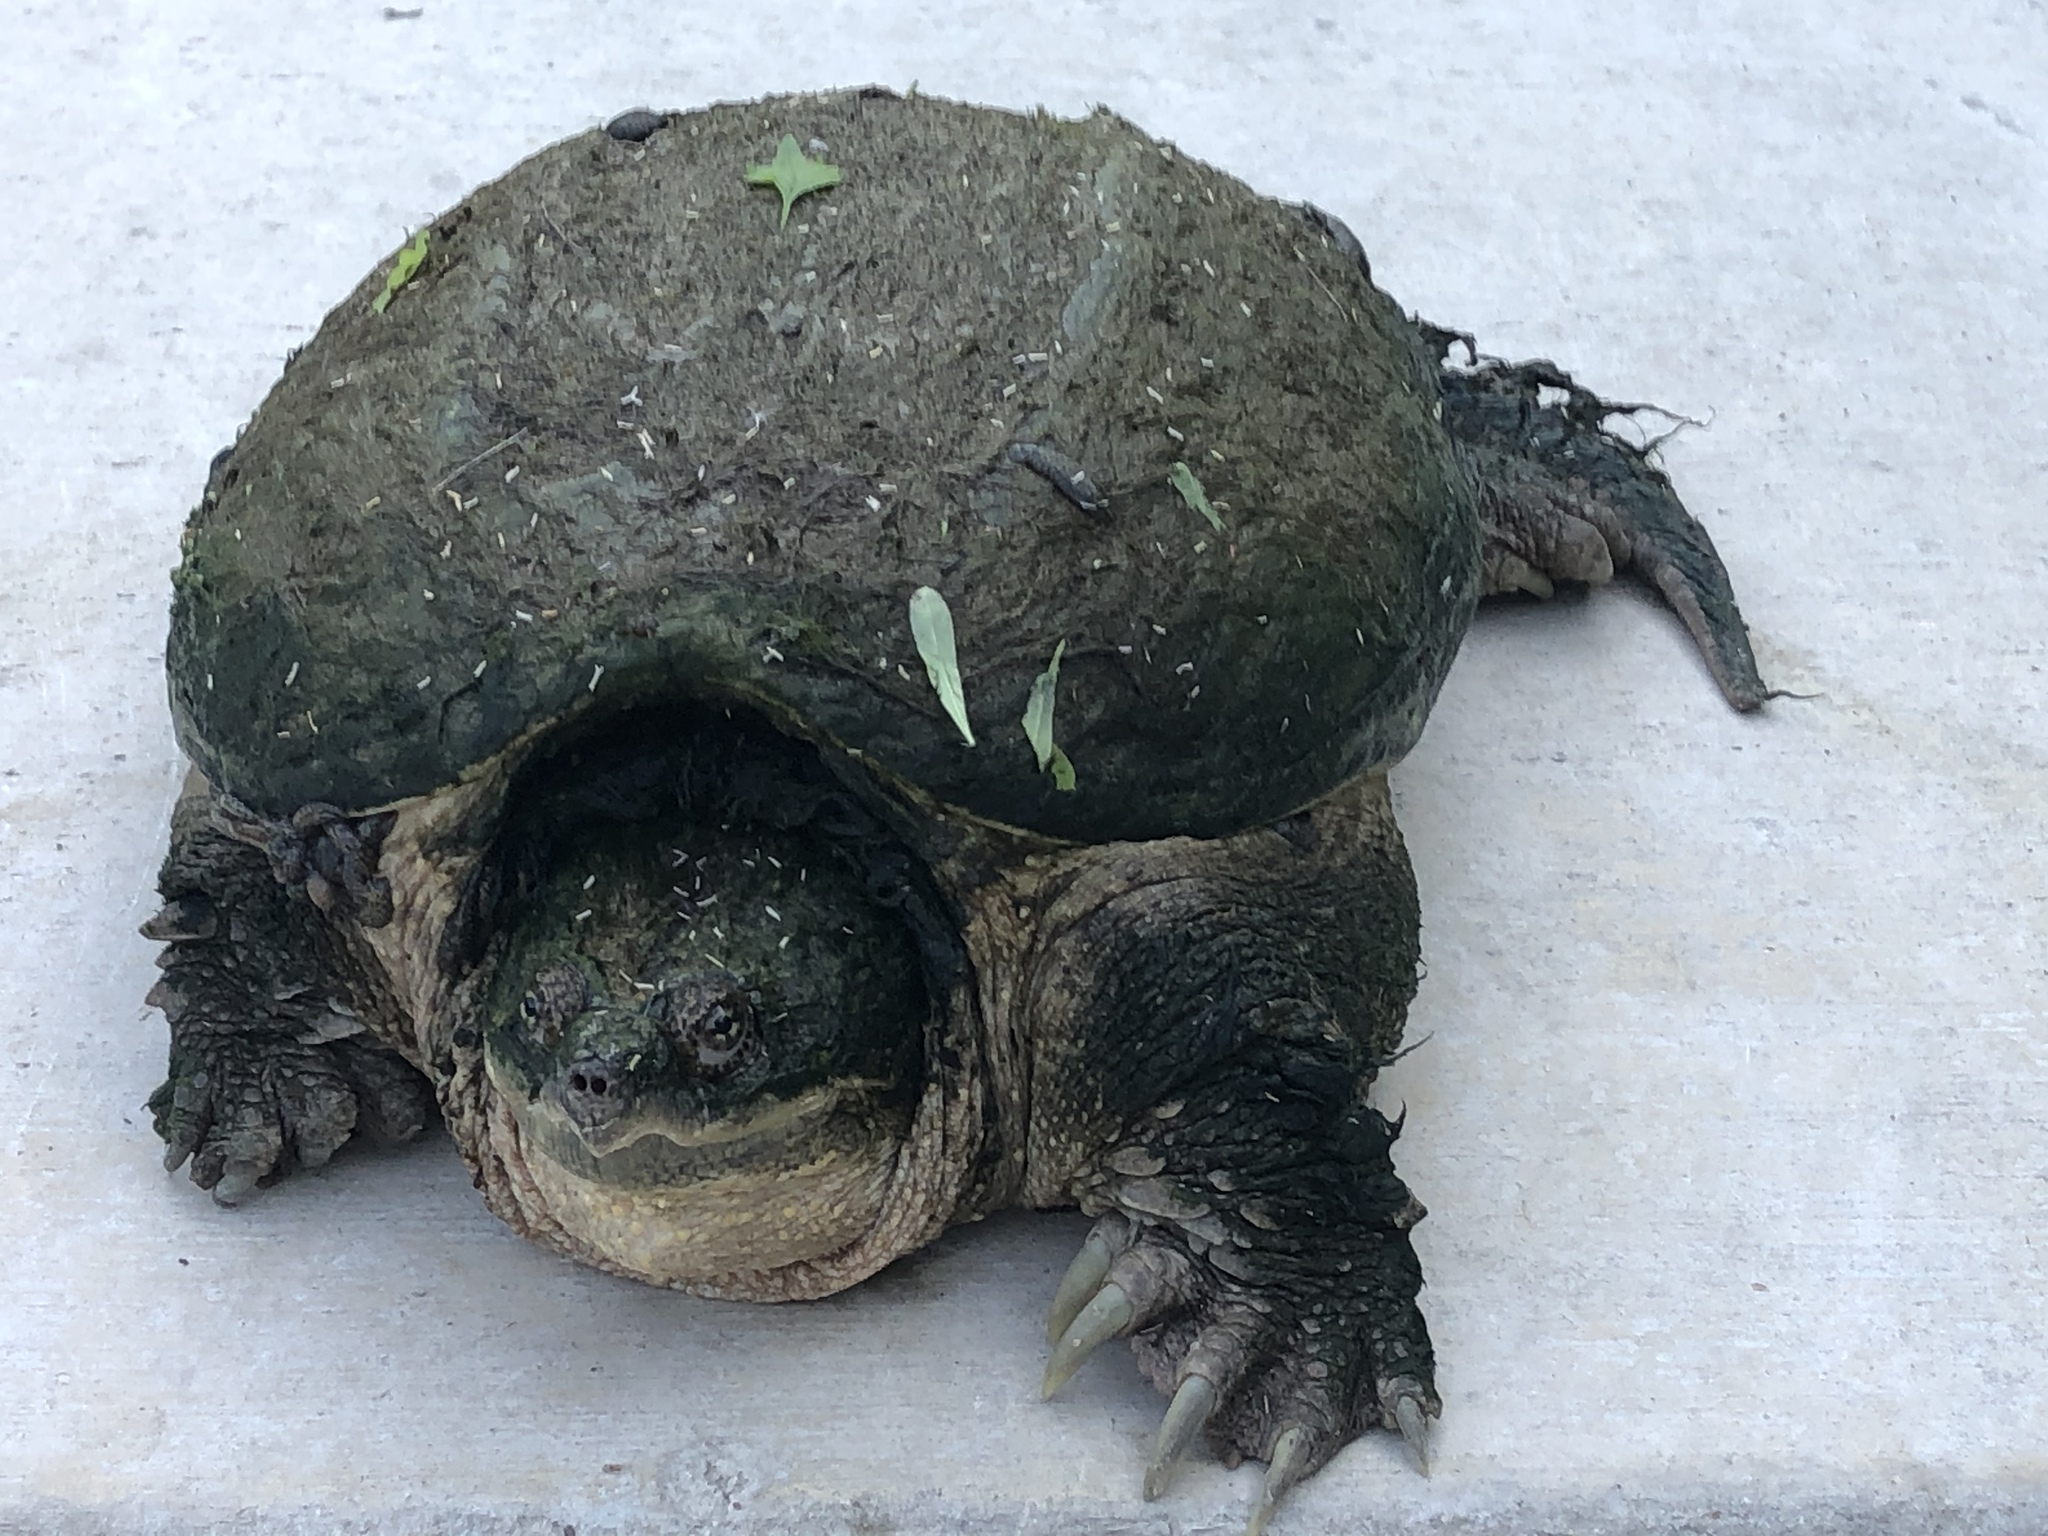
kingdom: Animalia
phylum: Chordata
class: Testudines
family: Chelydridae
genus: Chelydra
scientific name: Chelydra serpentina
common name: Common snapping turtle
